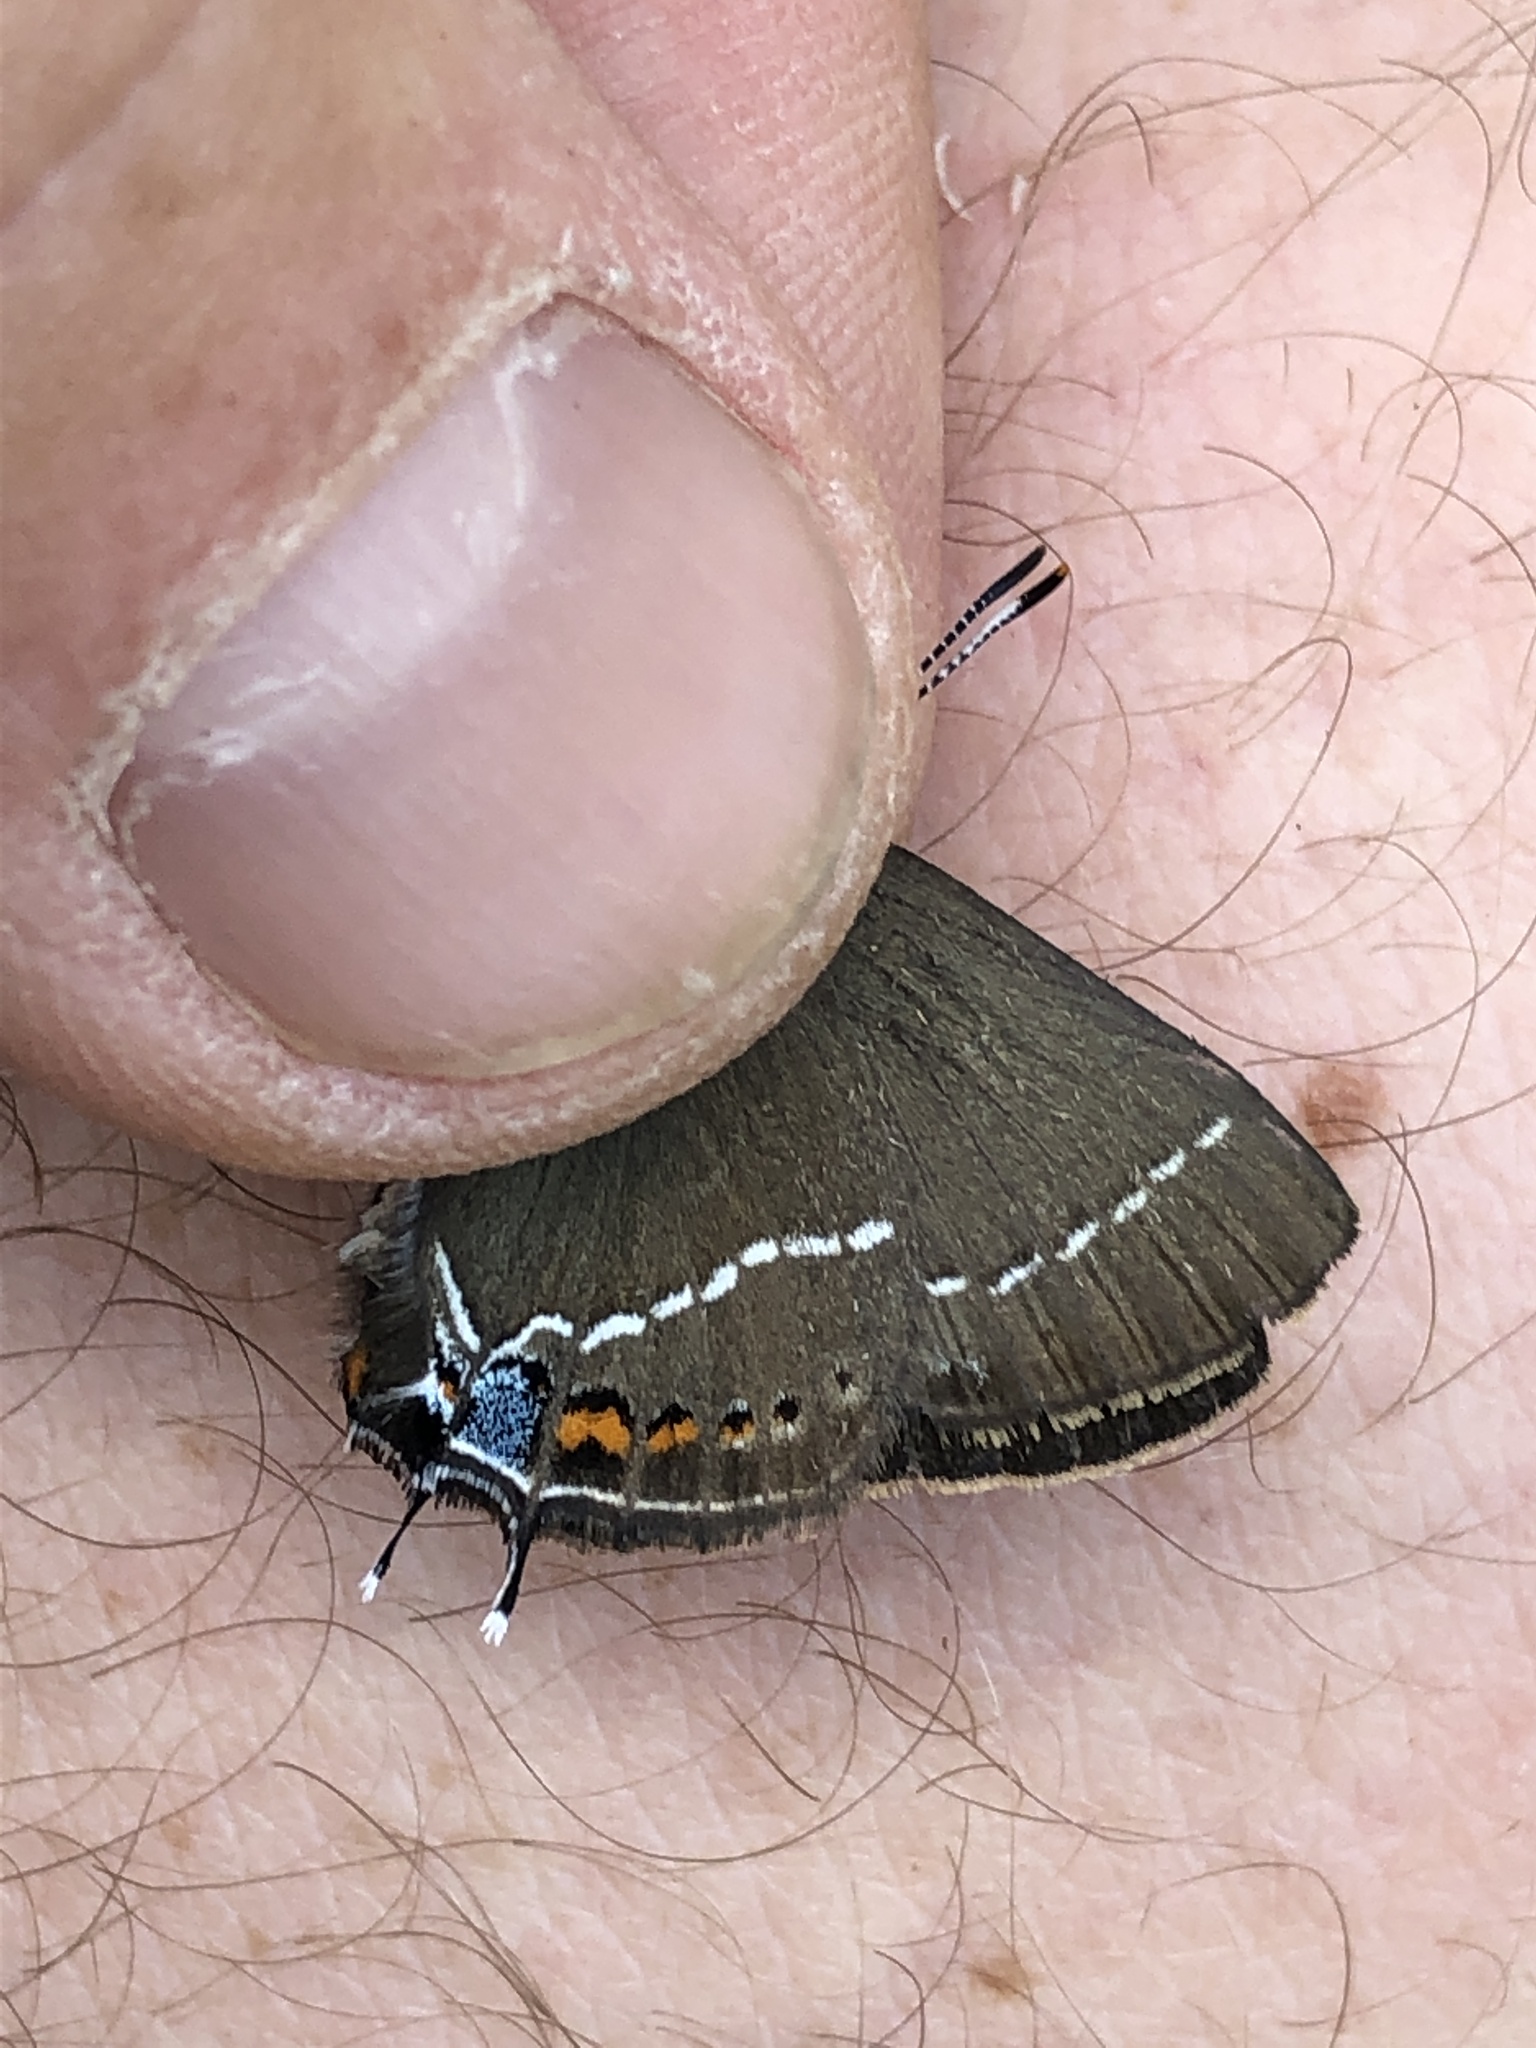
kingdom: Animalia
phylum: Arthropoda
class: Insecta
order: Lepidoptera
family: Lycaenidae
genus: Tuttiola
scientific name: Tuttiola spini
